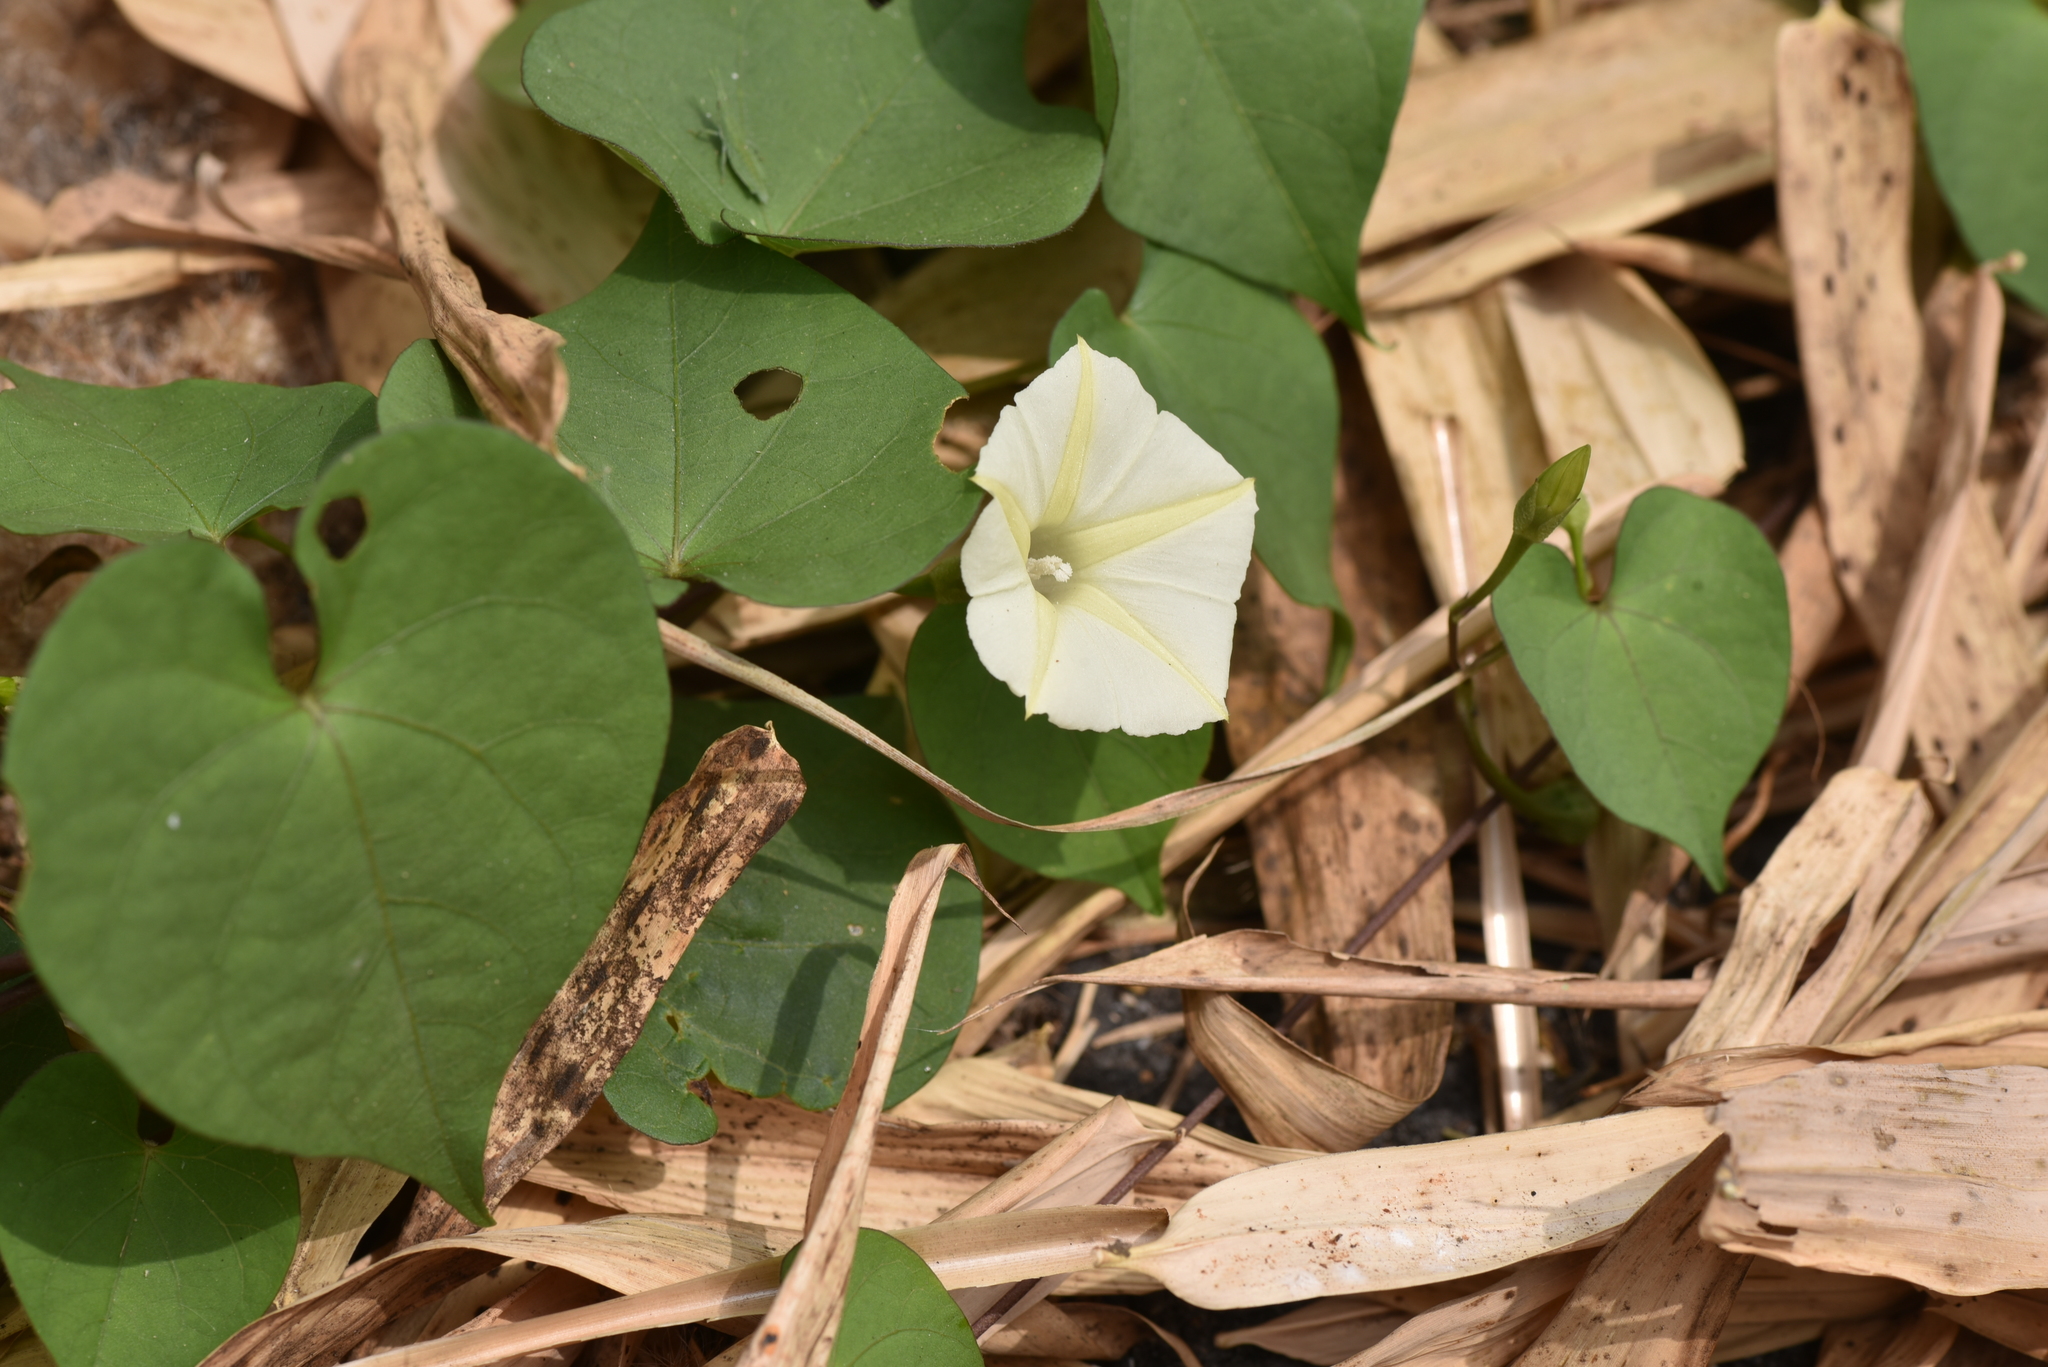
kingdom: Plantae
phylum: Tracheophyta
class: Magnoliopsida
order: Solanales
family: Convolvulaceae
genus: Ipomoea
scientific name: Ipomoea obscura
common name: Obscure morning-glory
